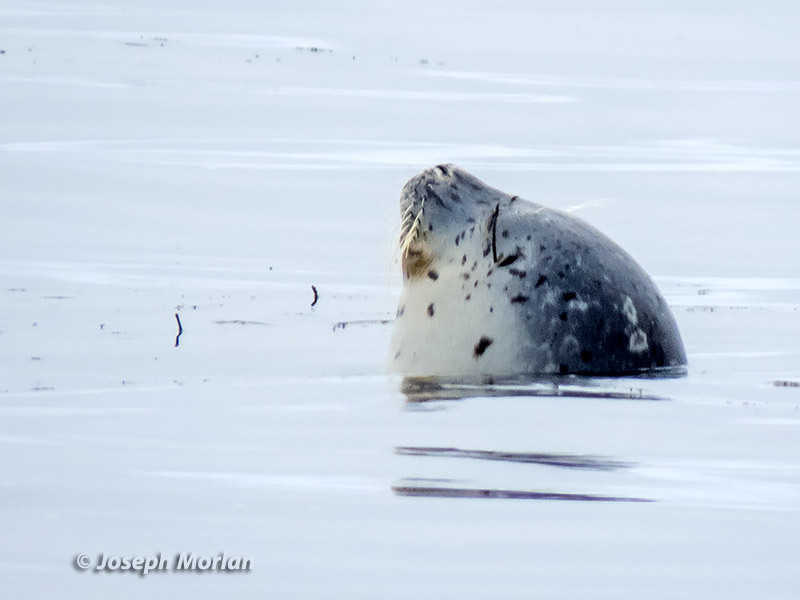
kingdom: Animalia
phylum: Chordata
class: Mammalia
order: Carnivora
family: Phocidae
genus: Phoca
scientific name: Phoca vitulina
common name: Harbor seal
